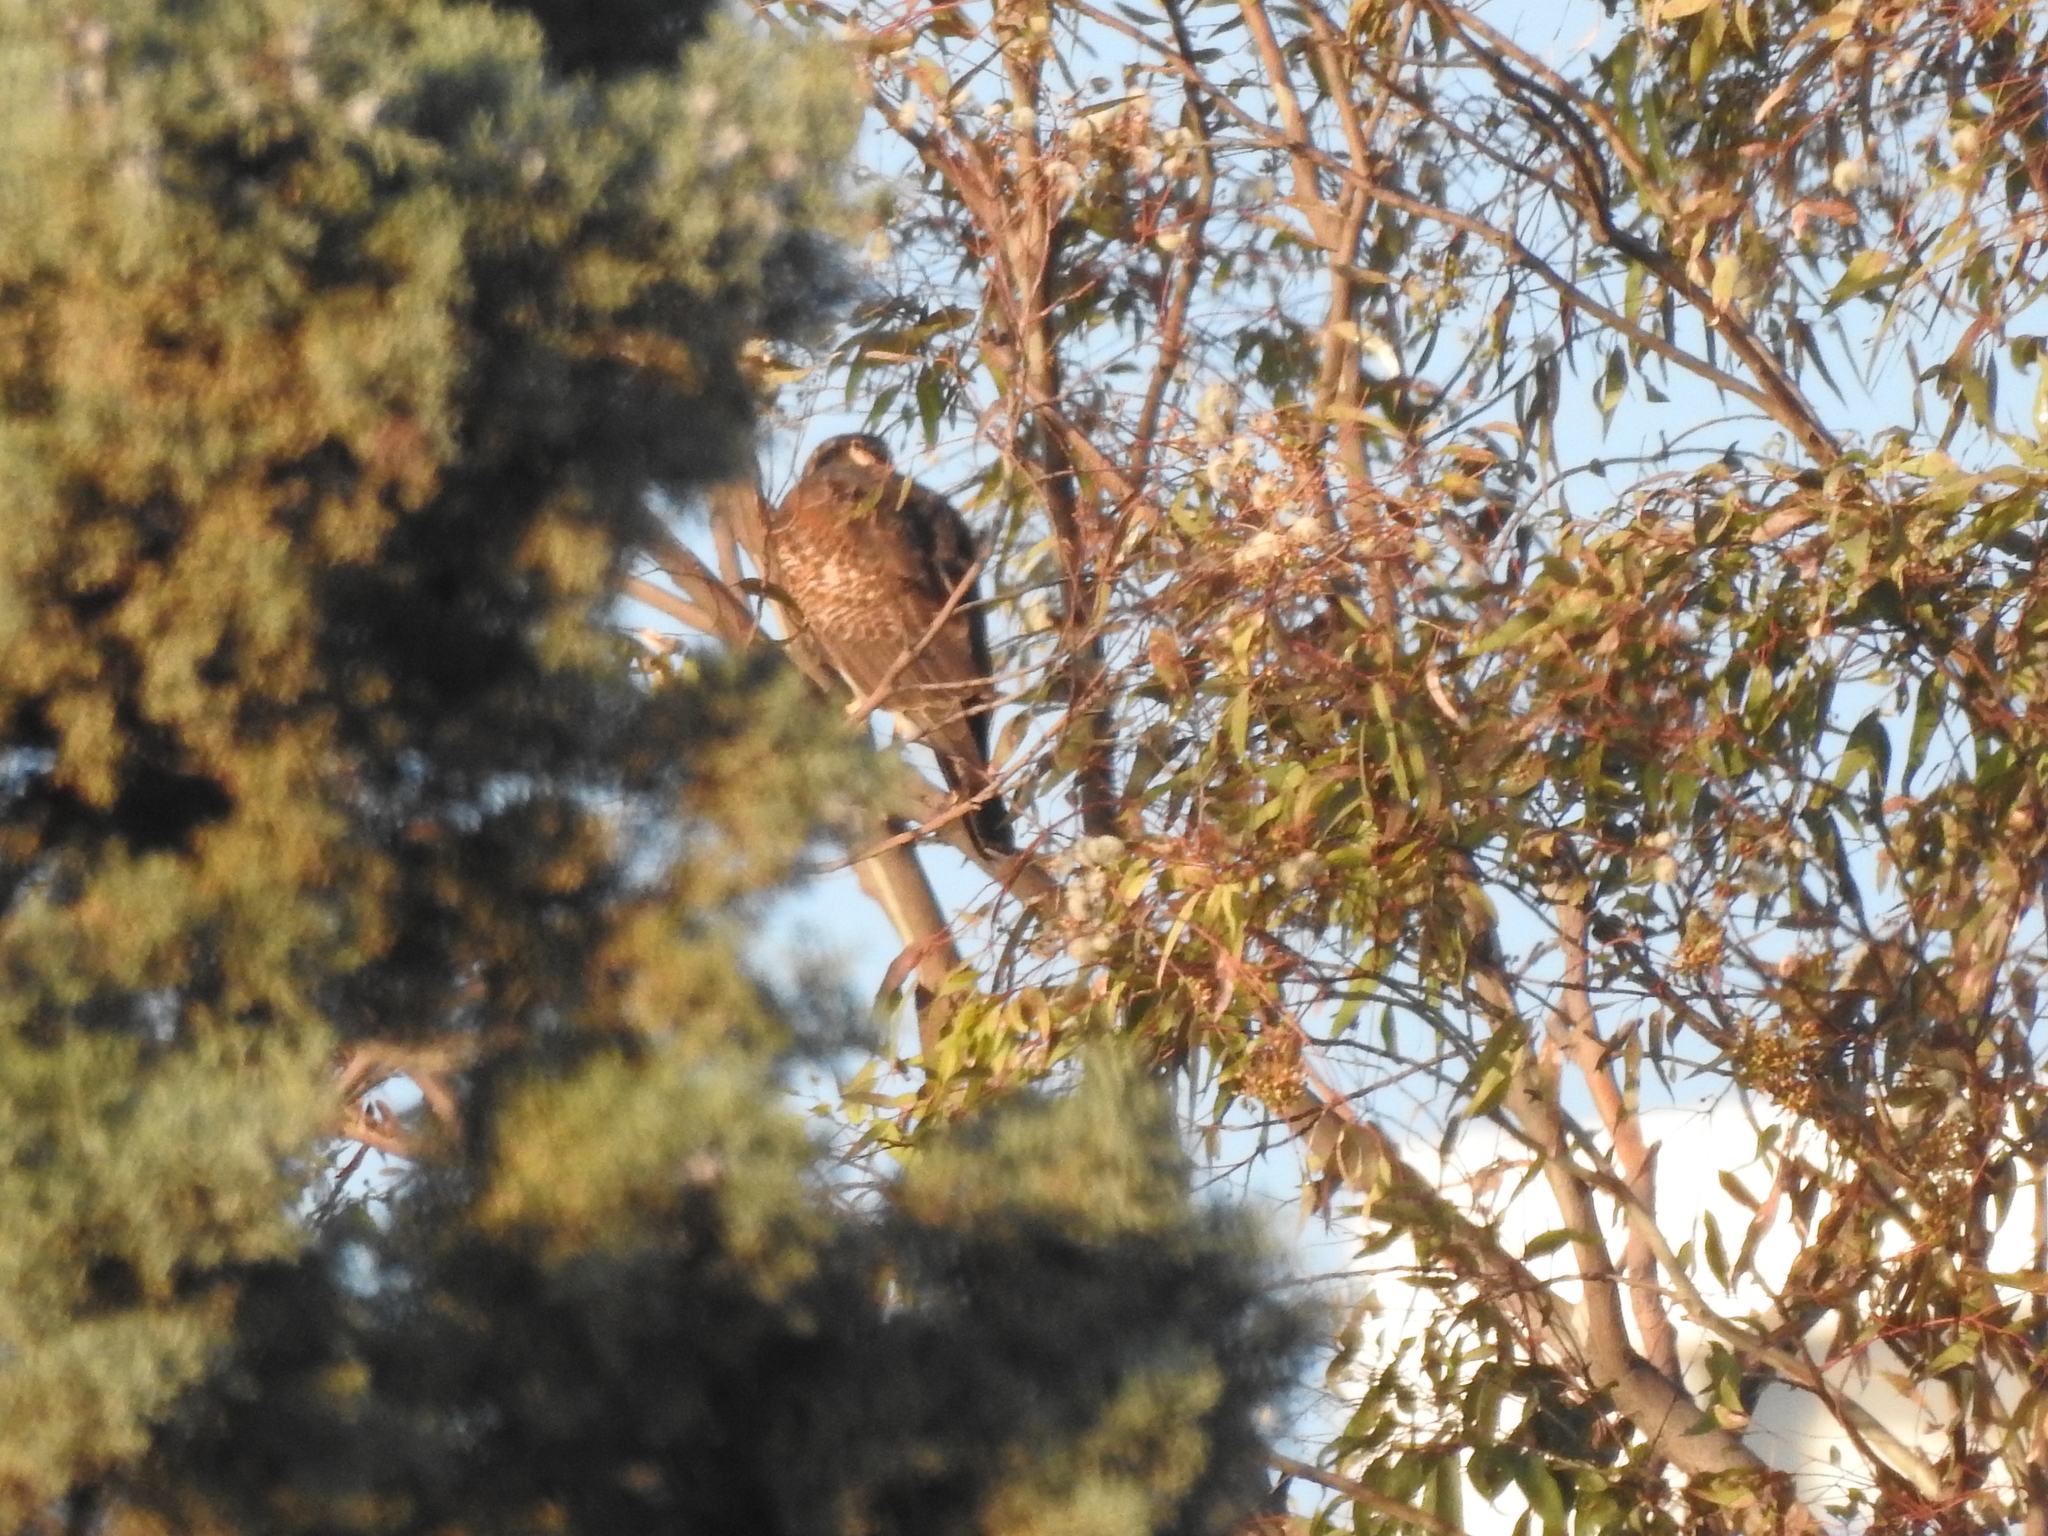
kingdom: Animalia
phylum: Chordata
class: Aves
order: Accipitriformes
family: Accipitridae
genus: Parabuteo
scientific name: Parabuteo unicinctus
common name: Harris's hawk
